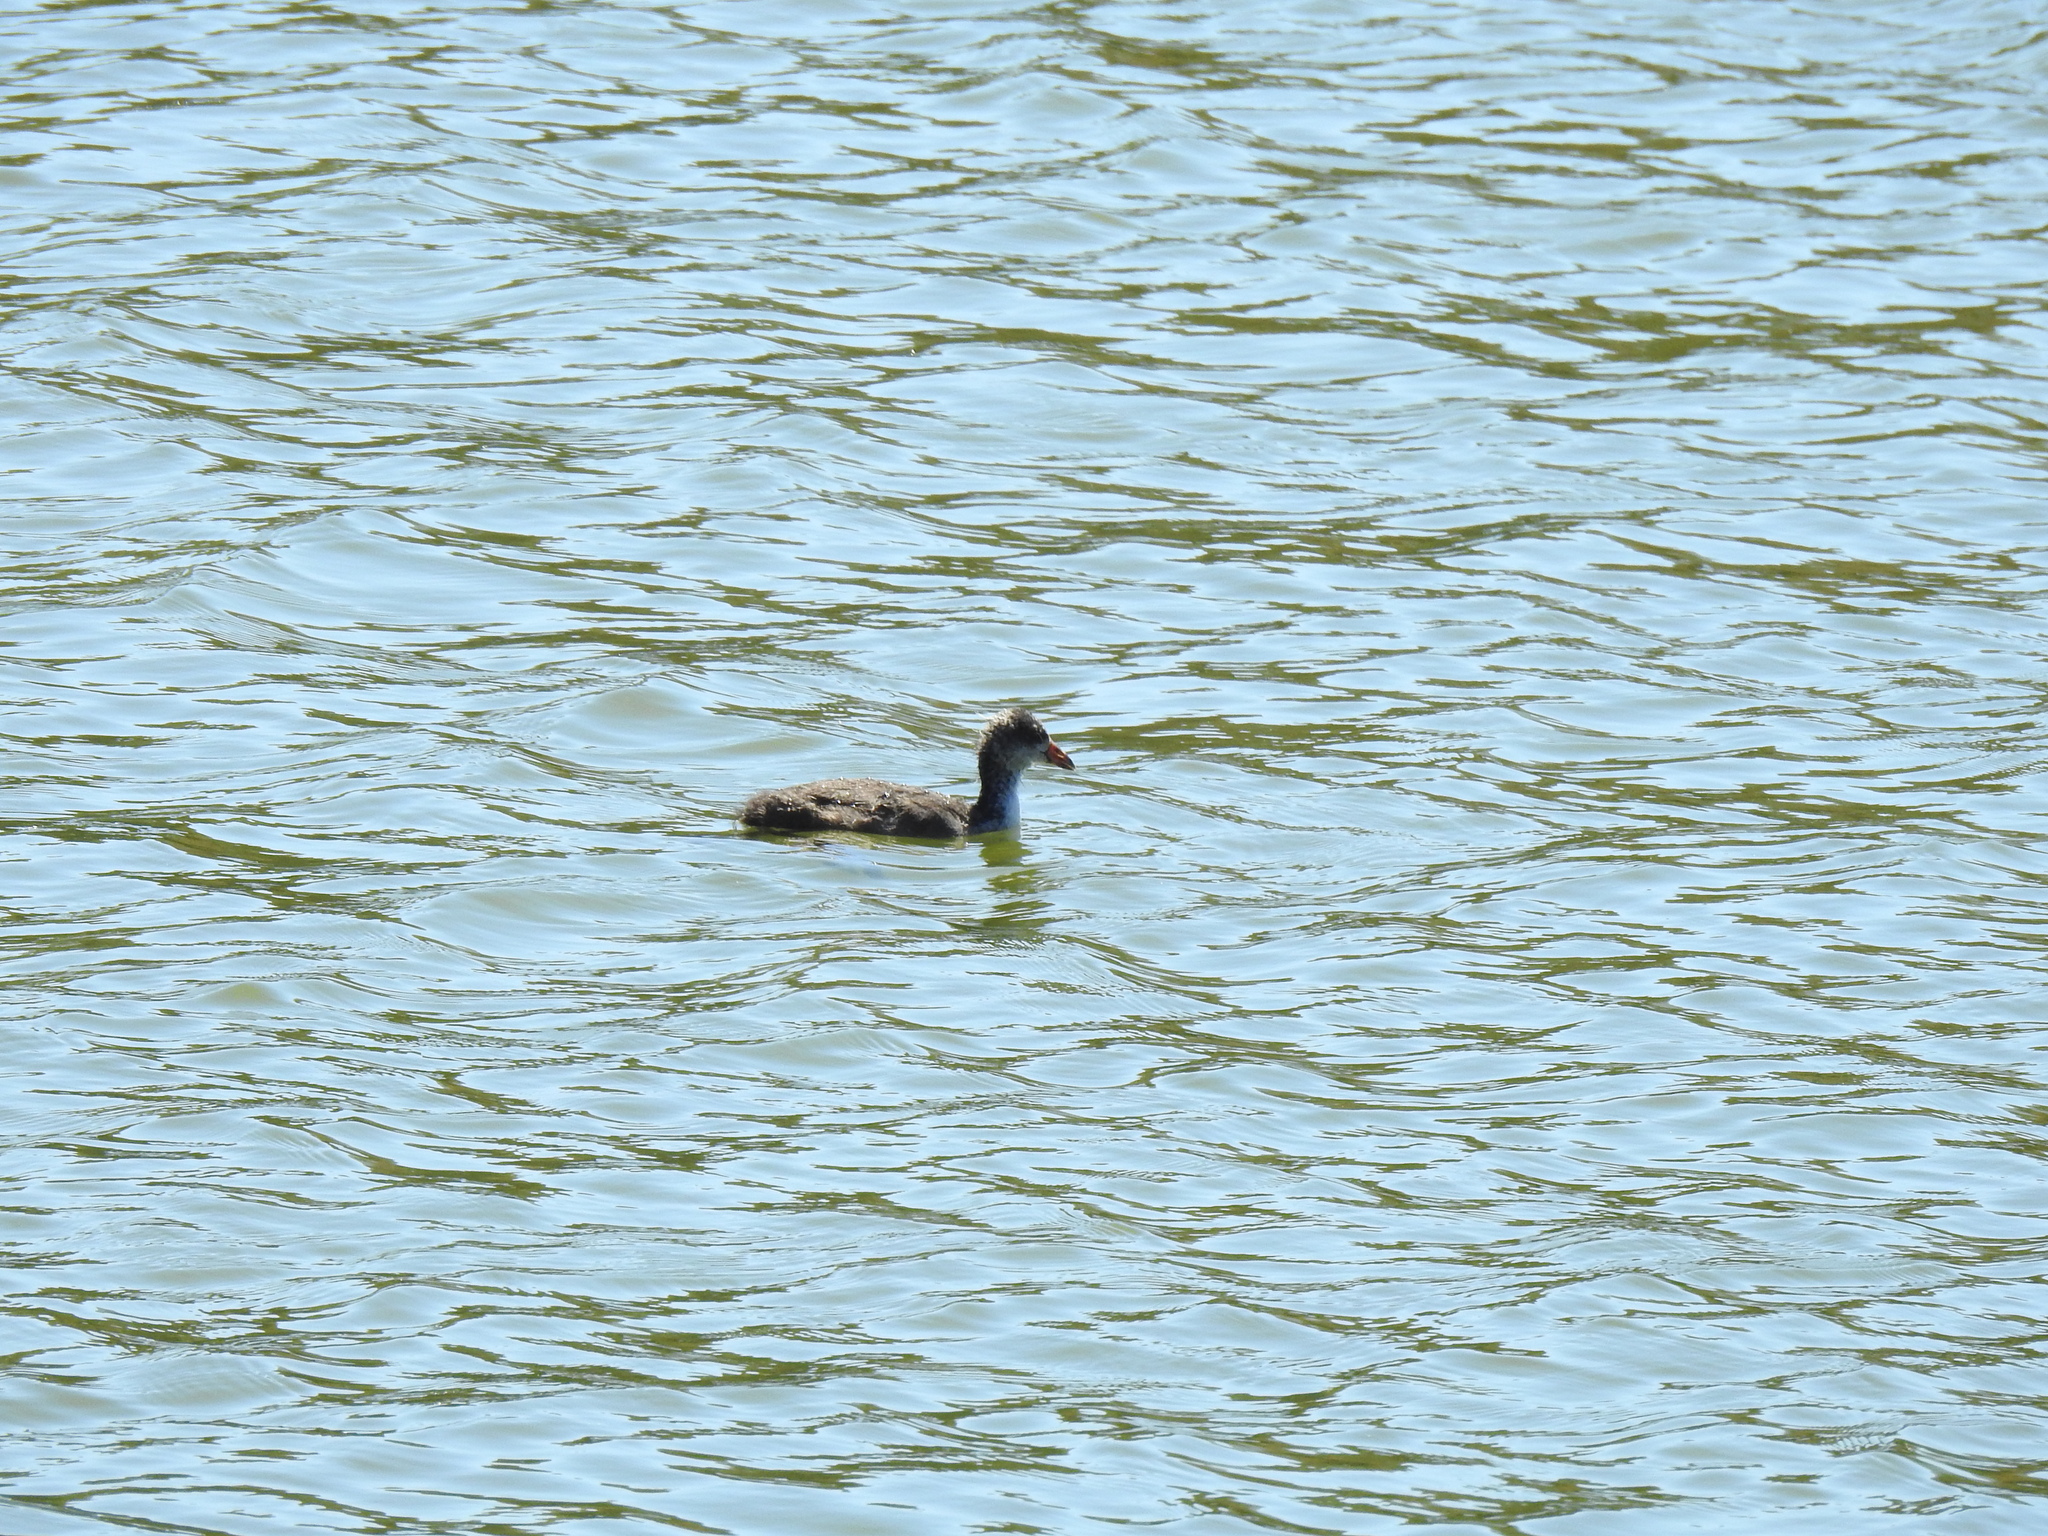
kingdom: Animalia
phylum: Chordata
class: Aves
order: Gruiformes
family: Rallidae
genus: Fulica
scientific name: Fulica americana
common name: American coot
